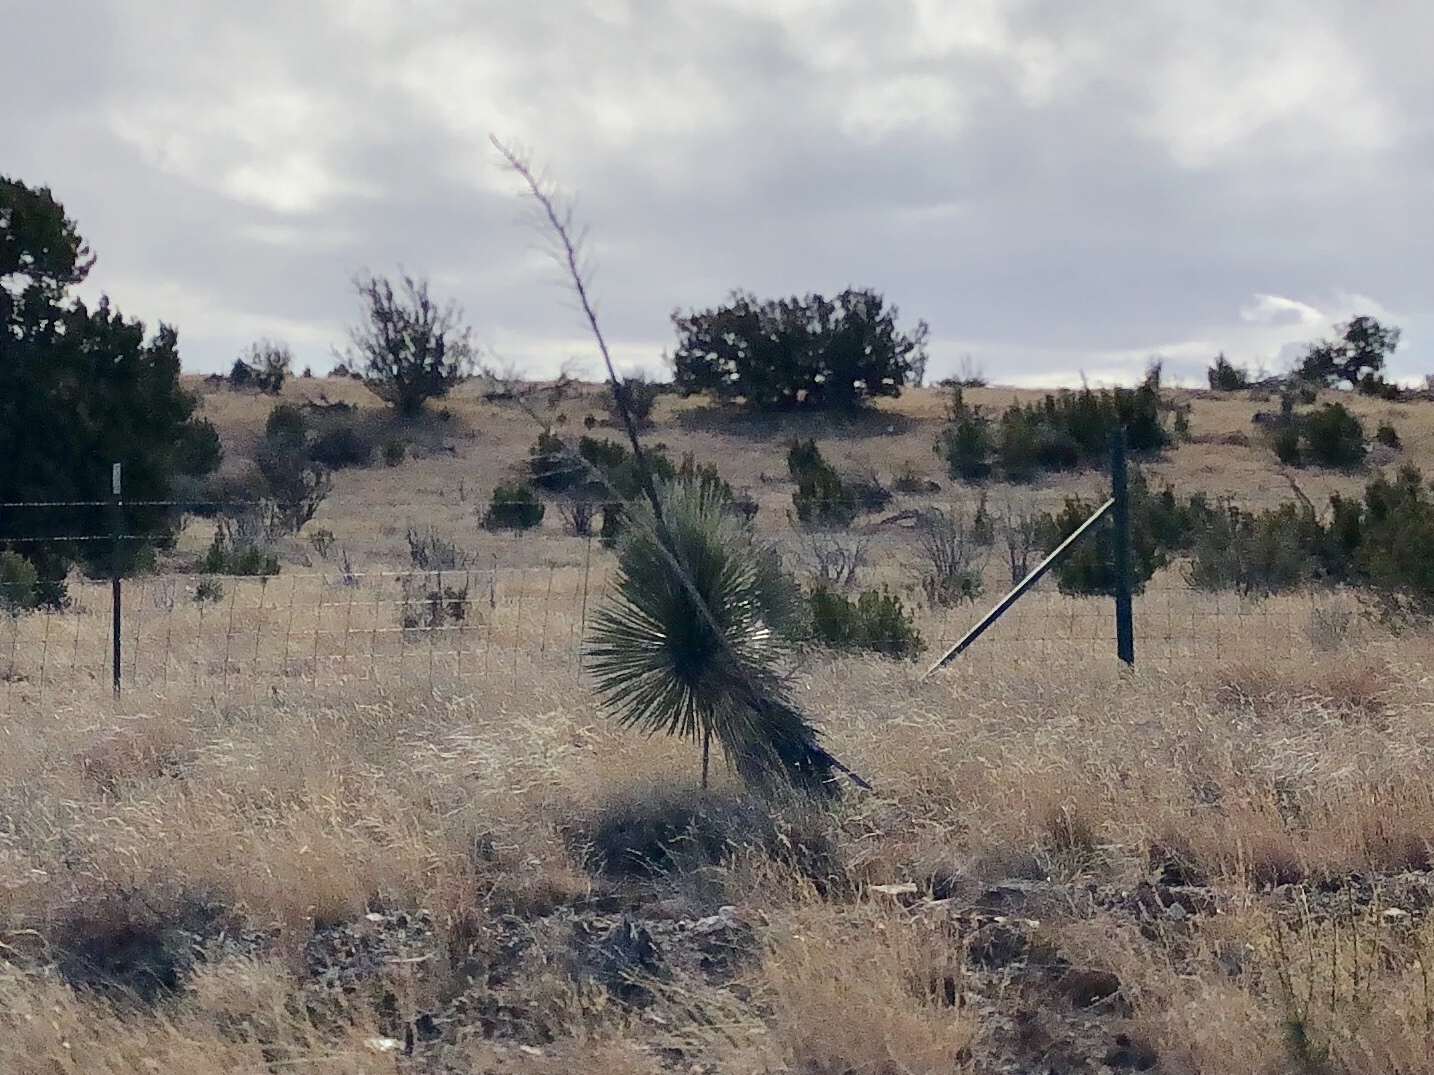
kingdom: Plantae
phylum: Tracheophyta
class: Liliopsida
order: Asparagales
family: Asparagaceae
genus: Yucca
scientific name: Yucca elata
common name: Palmella
